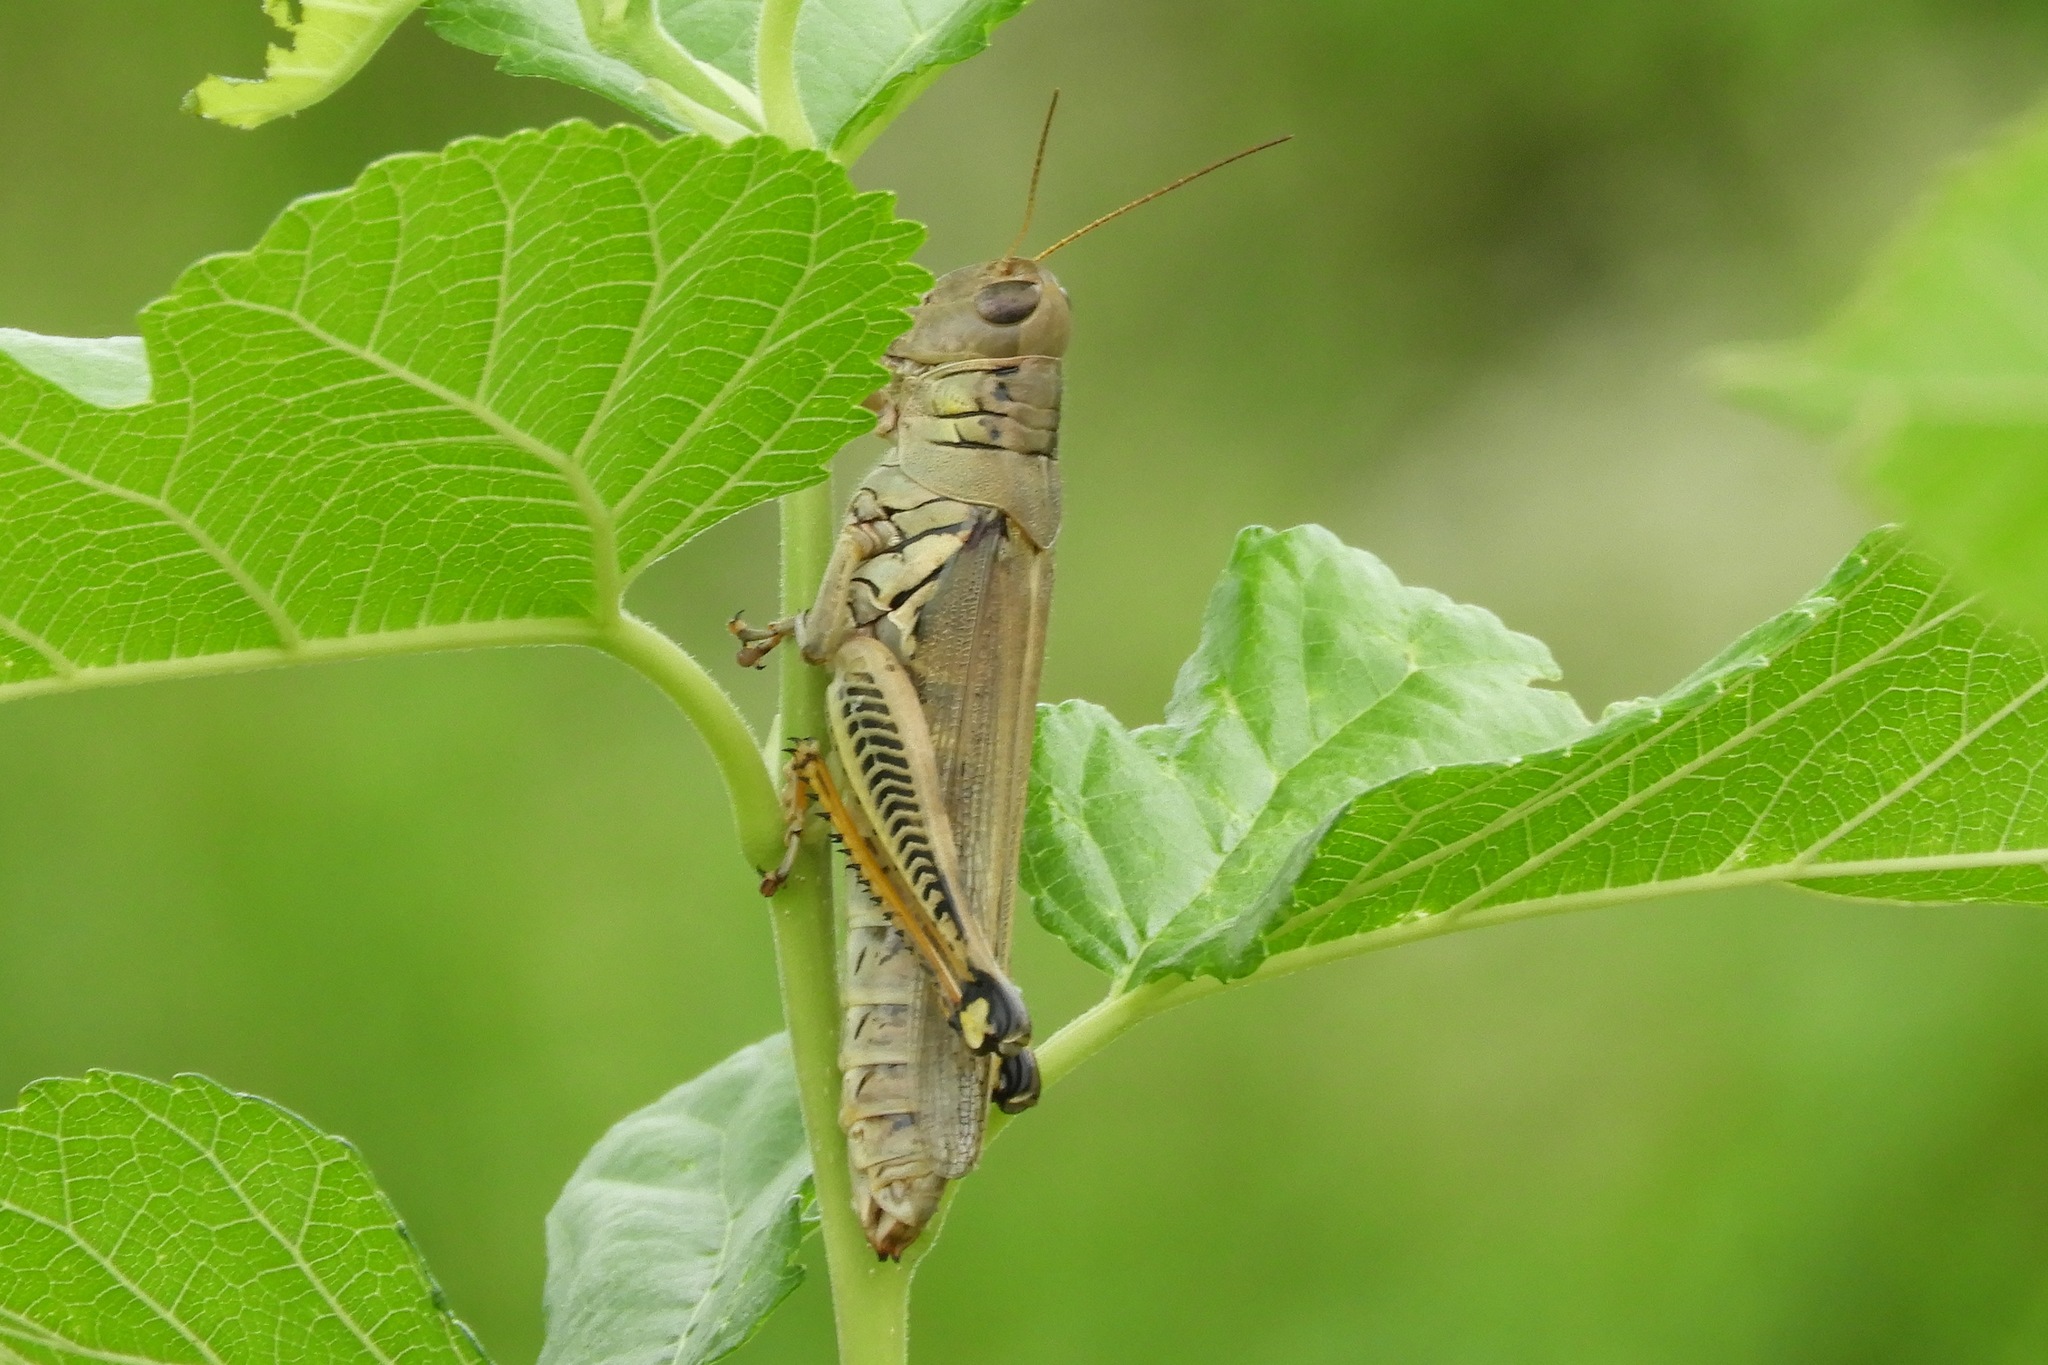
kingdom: Animalia
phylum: Arthropoda
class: Insecta
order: Orthoptera
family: Acrididae
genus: Melanoplus
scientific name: Melanoplus differentialis
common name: Differential grasshopper
